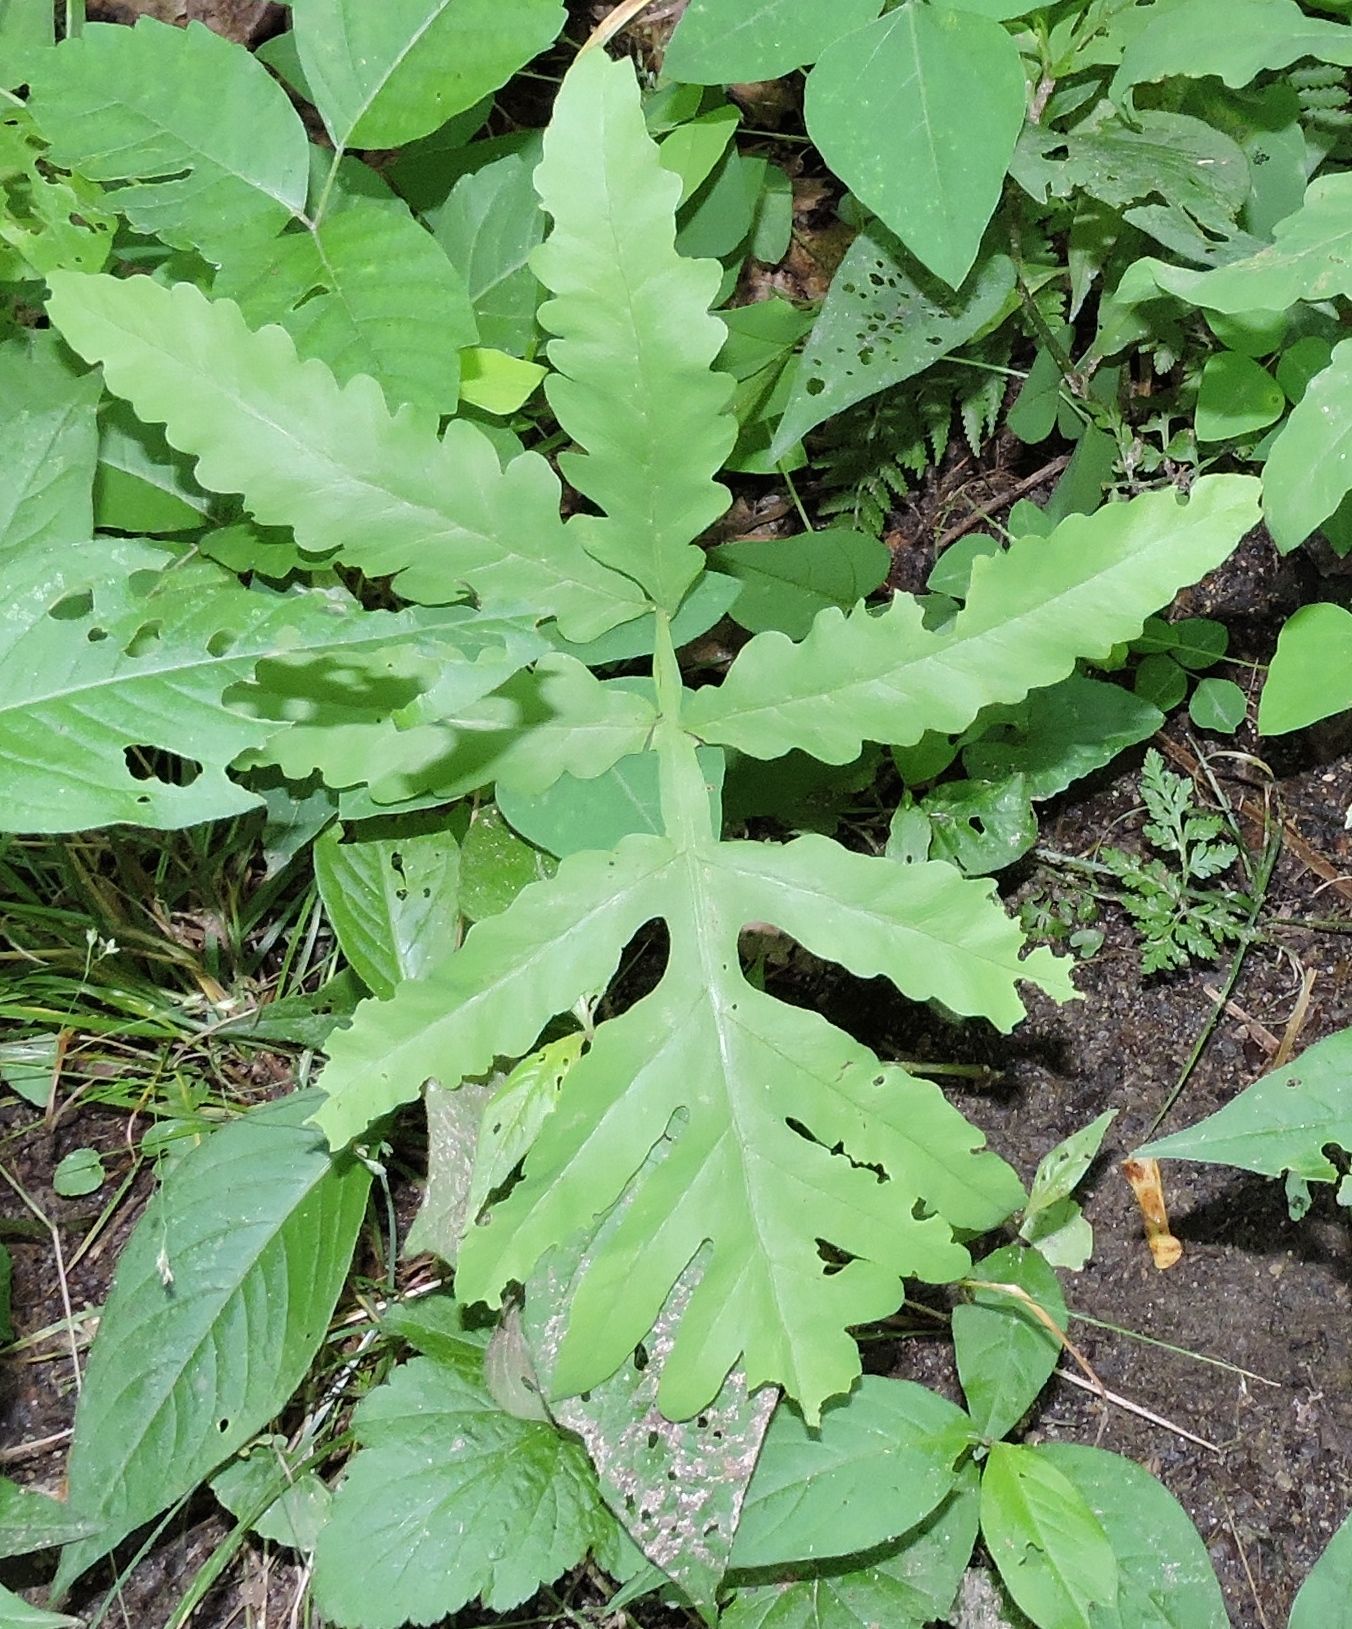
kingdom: Plantae
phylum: Tracheophyta
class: Polypodiopsida
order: Polypodiales
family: Onocleaceae
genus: Onoclea
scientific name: Onoclea sensibilis
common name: Sensitive fern
